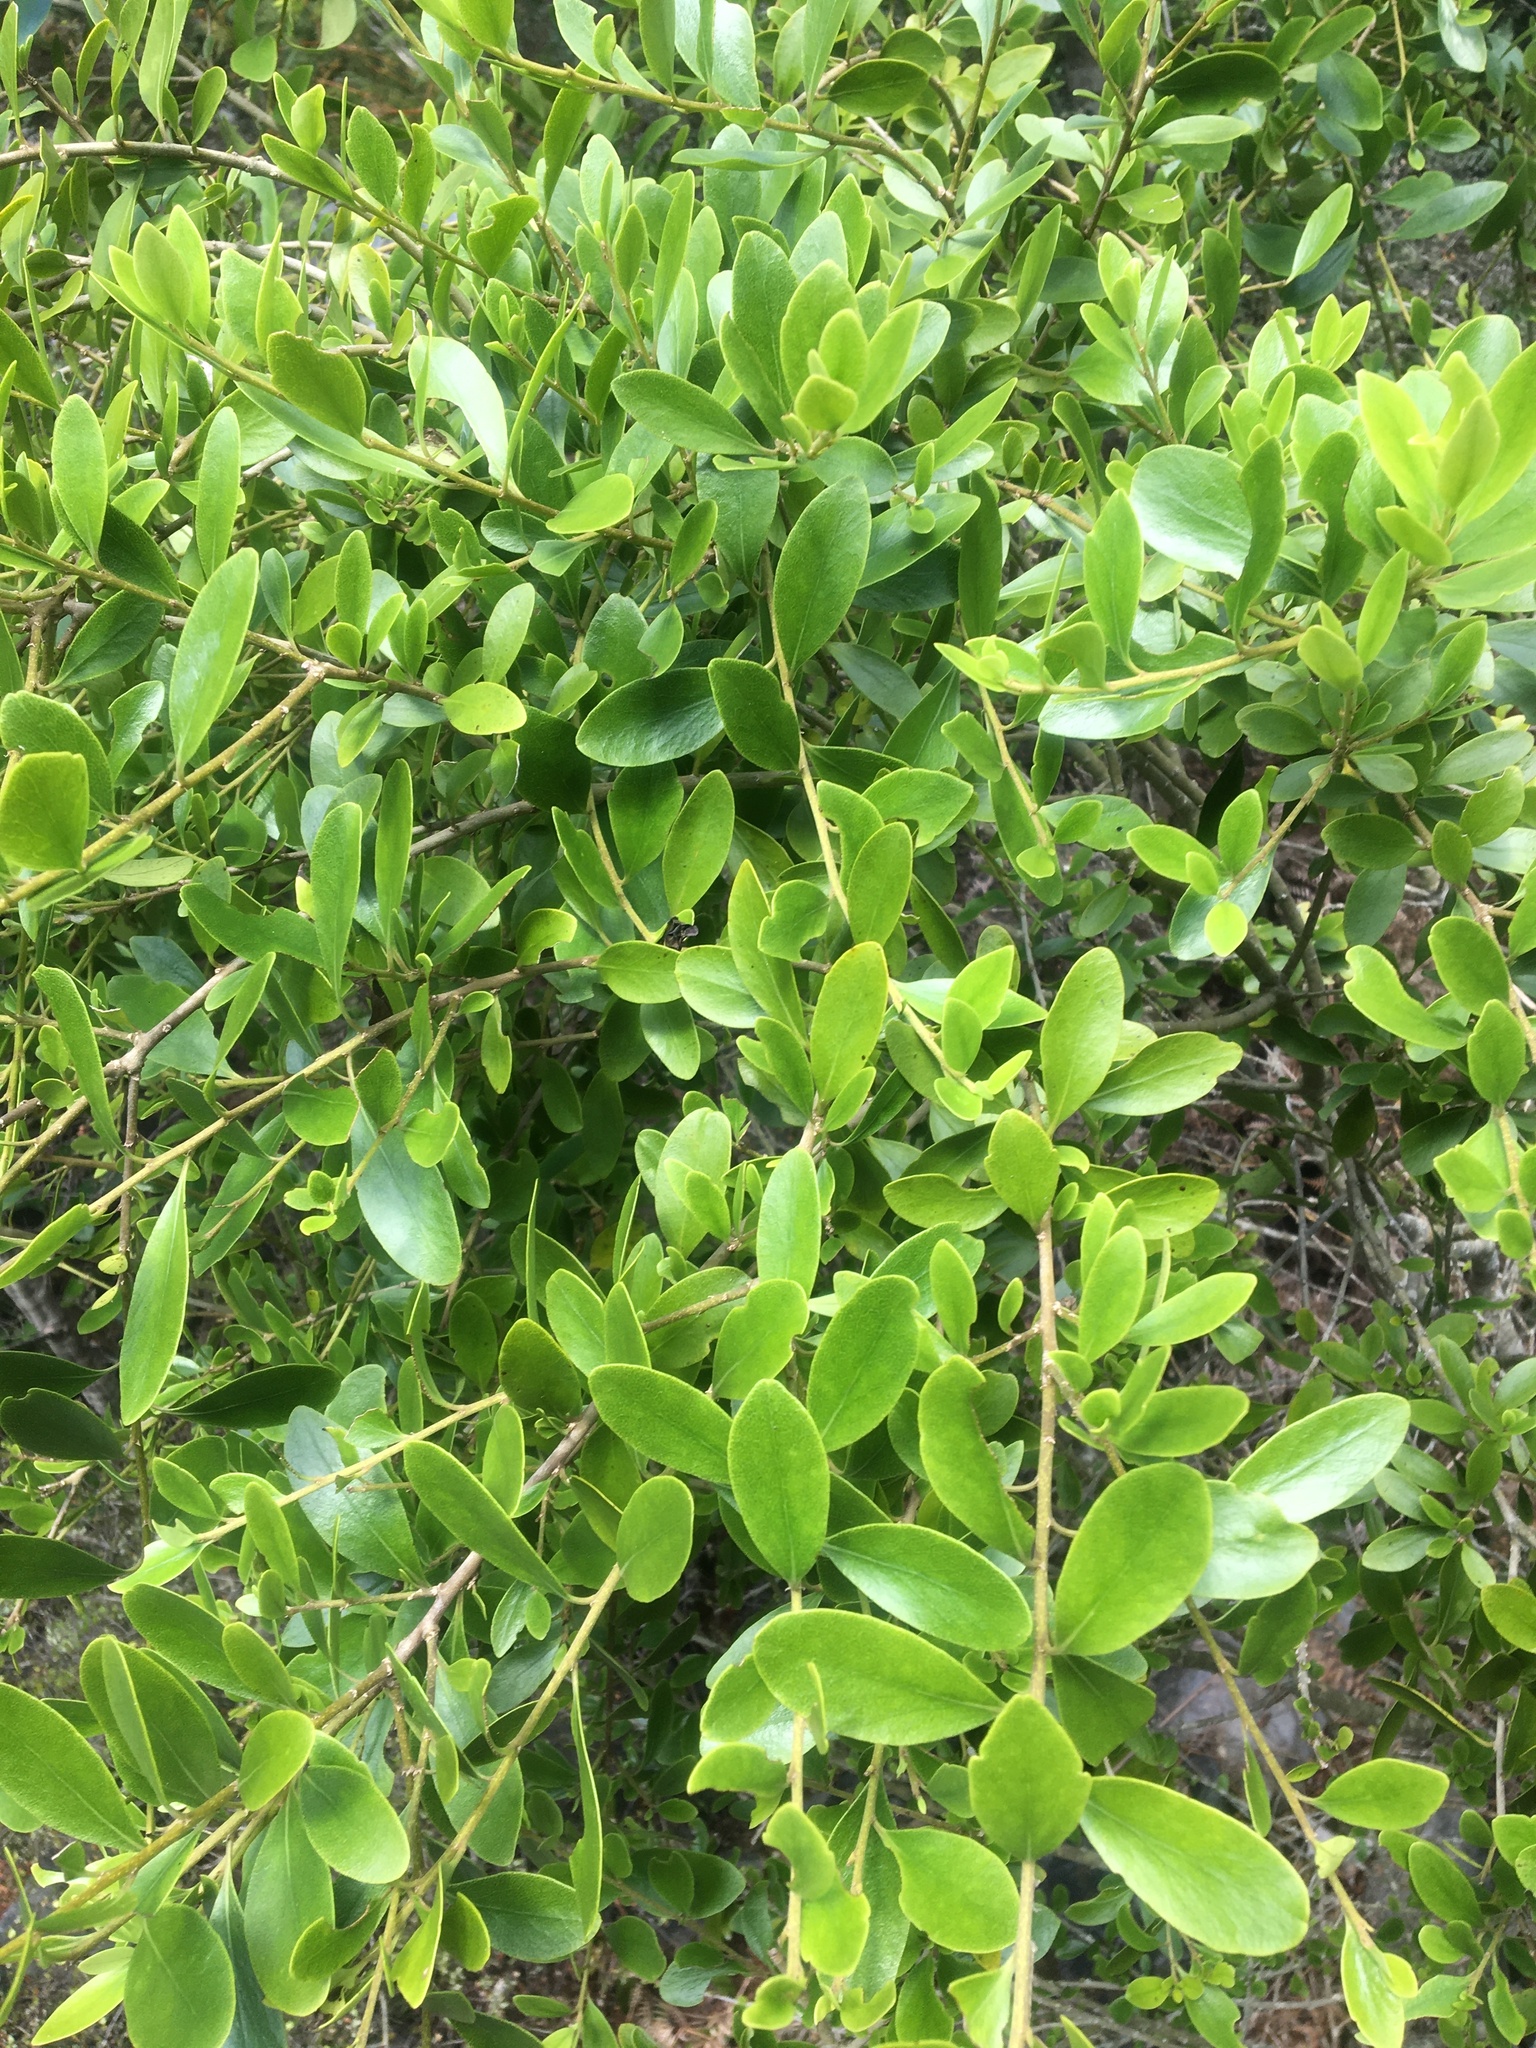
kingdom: Plantae
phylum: Tracheophyta
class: Magnoliopsida
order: Malpighiales
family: Violaceae
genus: Melicytus
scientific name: Melicytus obovatus
